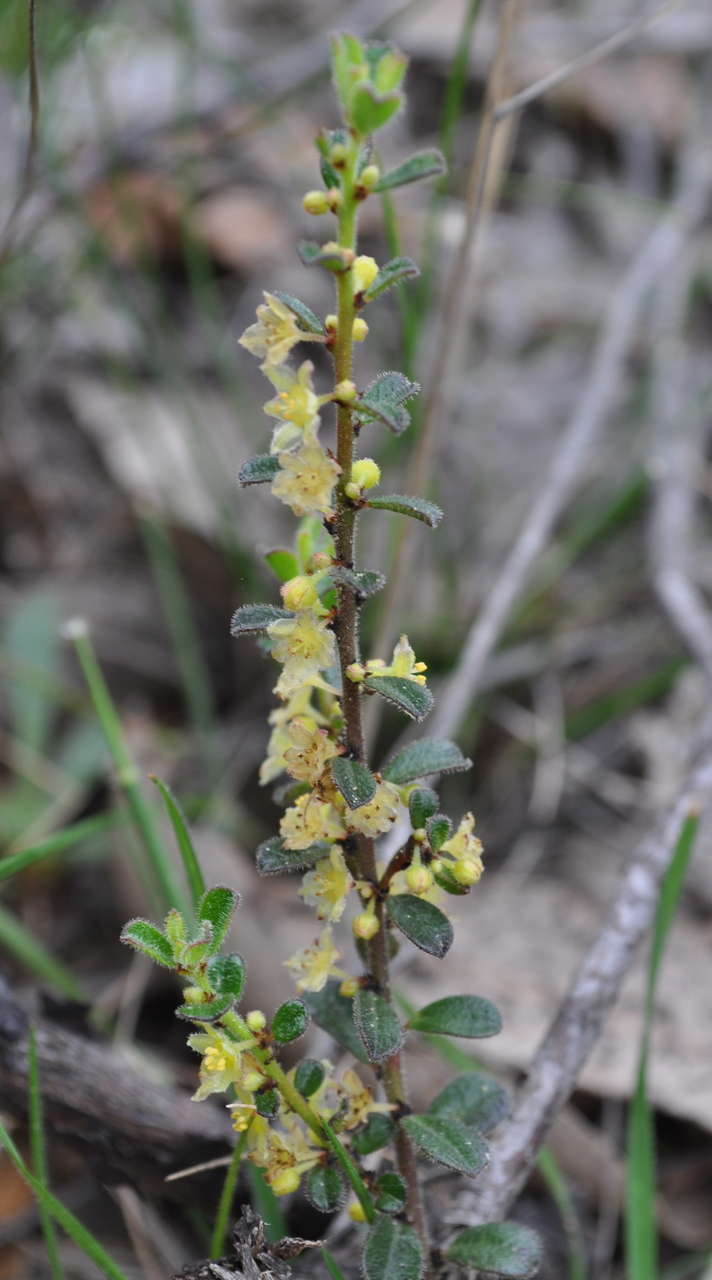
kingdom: Plantae
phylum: Tracheophyta
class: Magnoliopsida
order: Malpighiales
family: Phyllanthaceae
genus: Phyllanthus
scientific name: Phyllanthus hirtellus
